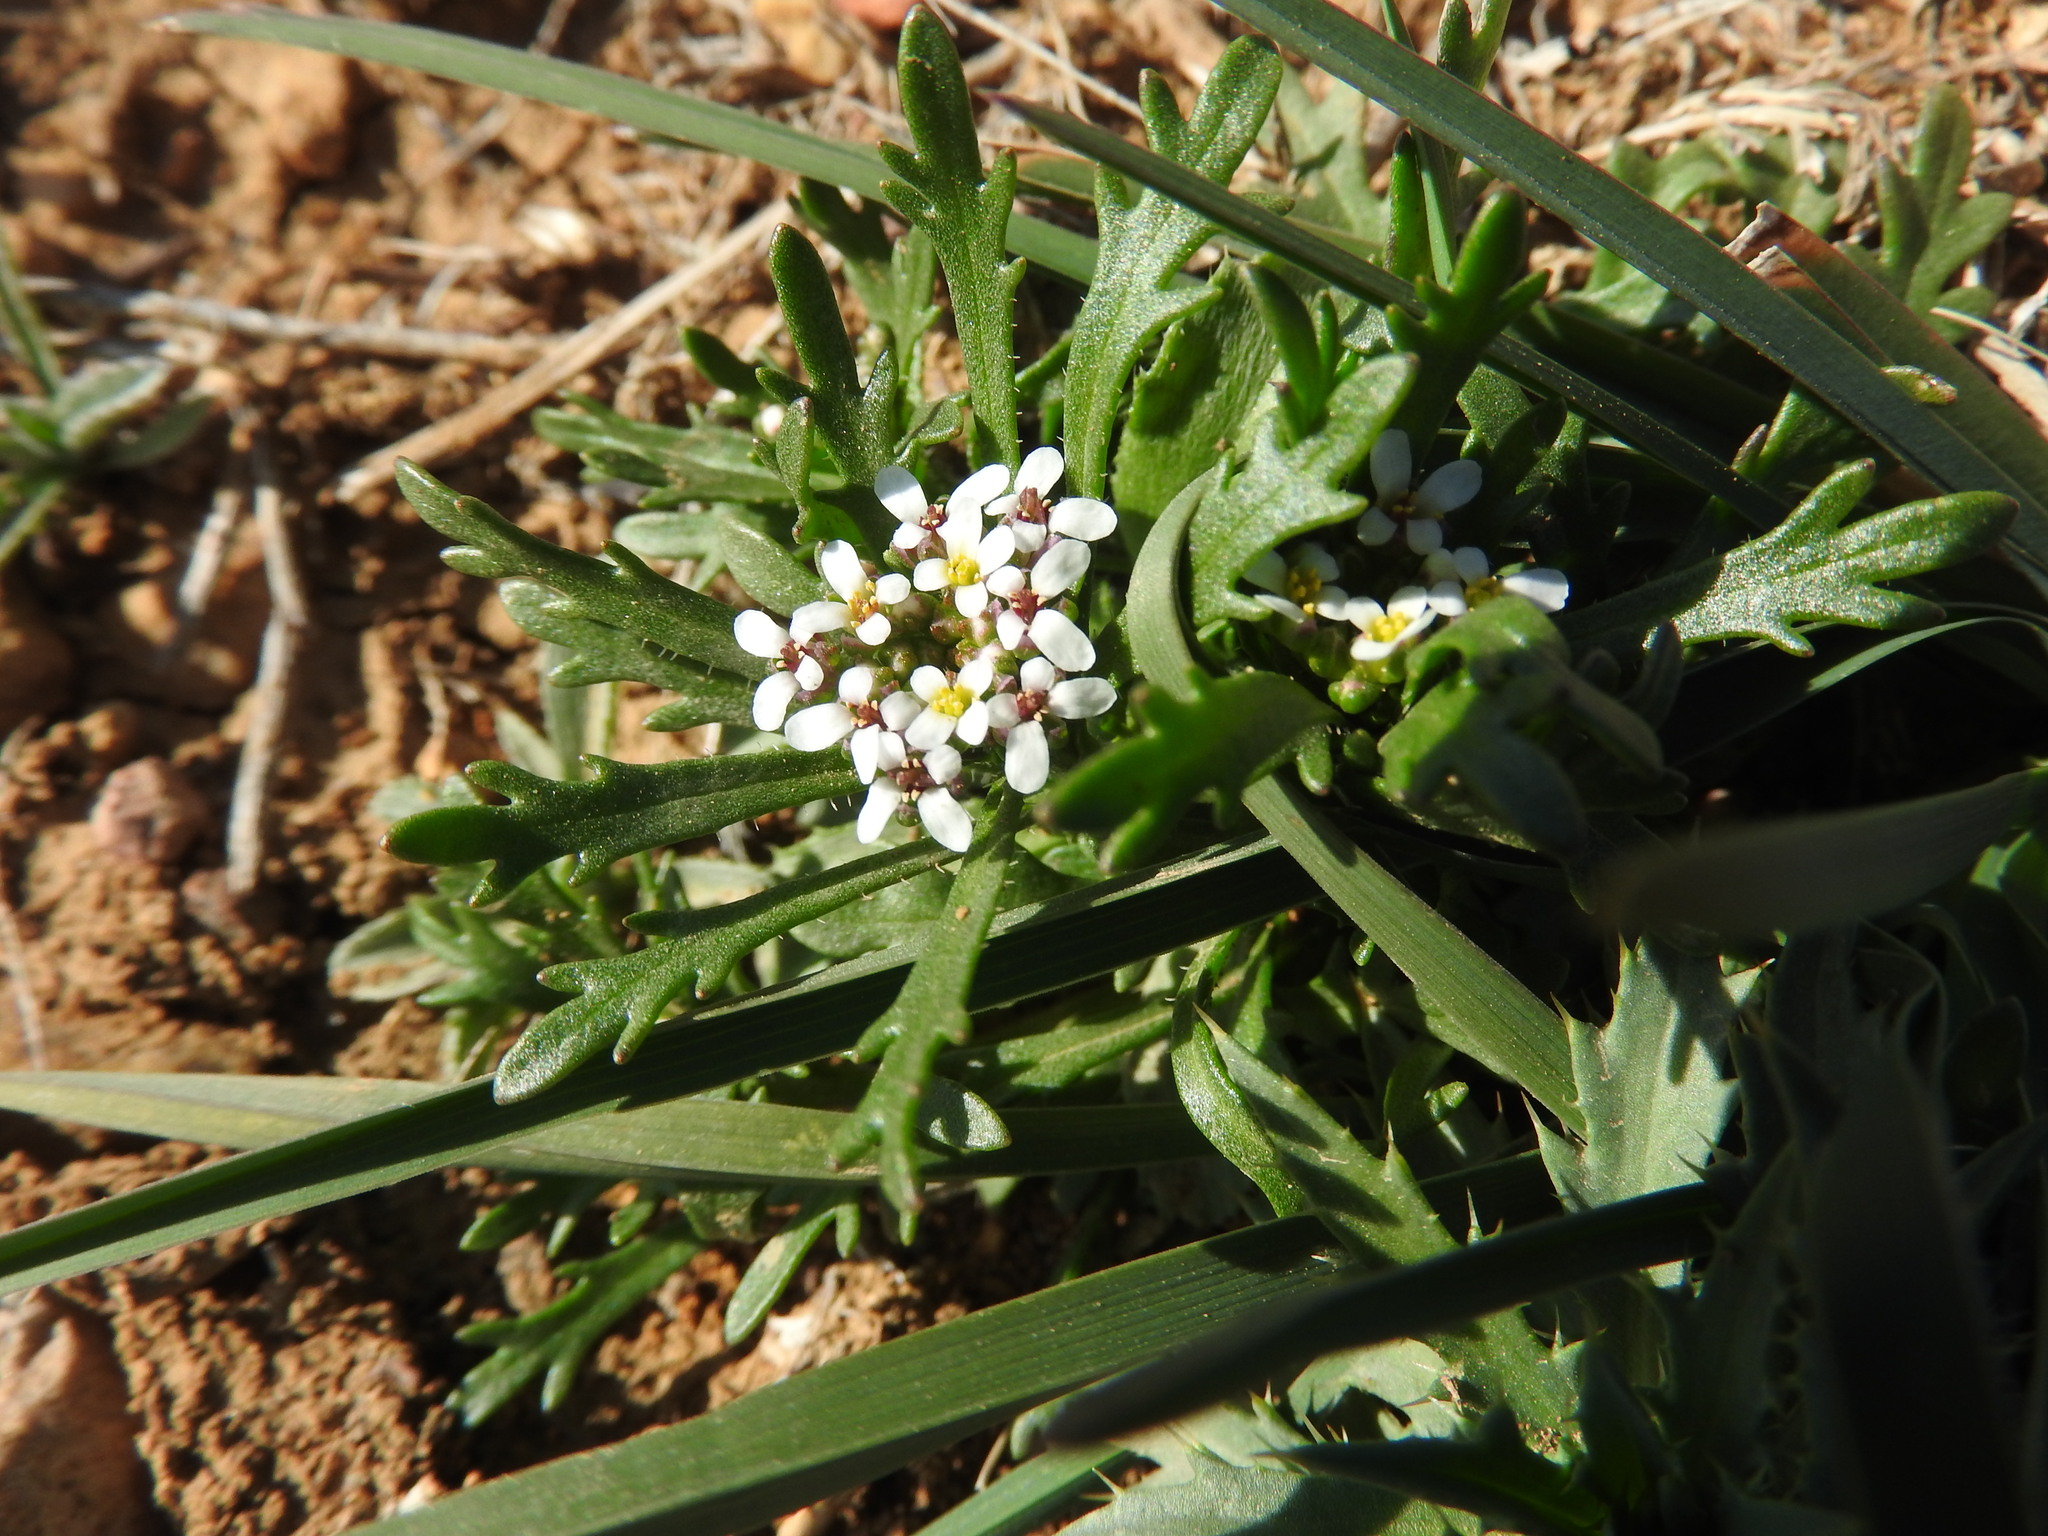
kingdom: Plantae
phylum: Tracheophyta
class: Magnoliopsida
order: Brassicales
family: Brassicaceae
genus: Iberis
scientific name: Iberis odorata
